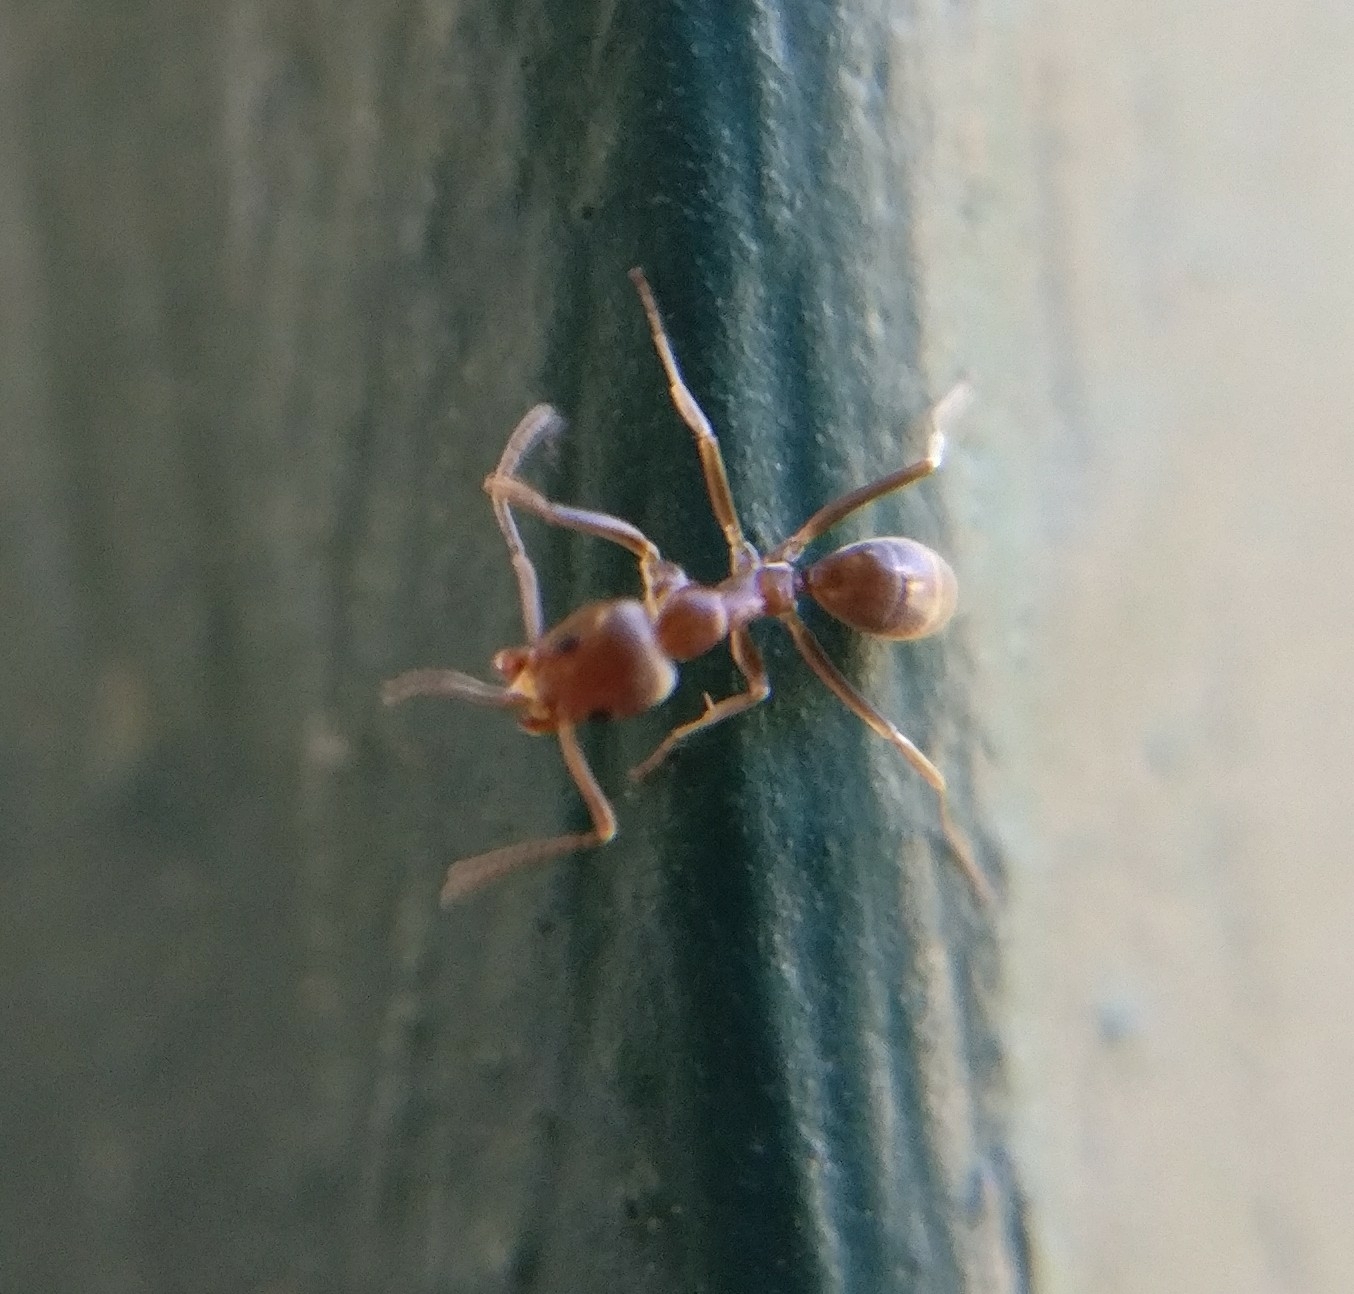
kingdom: Animalia
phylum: Arthropoda
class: Insecta
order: Hymenoptera
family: Formicidae
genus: Linepithema
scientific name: Linepithema humile
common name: Argentine ant
